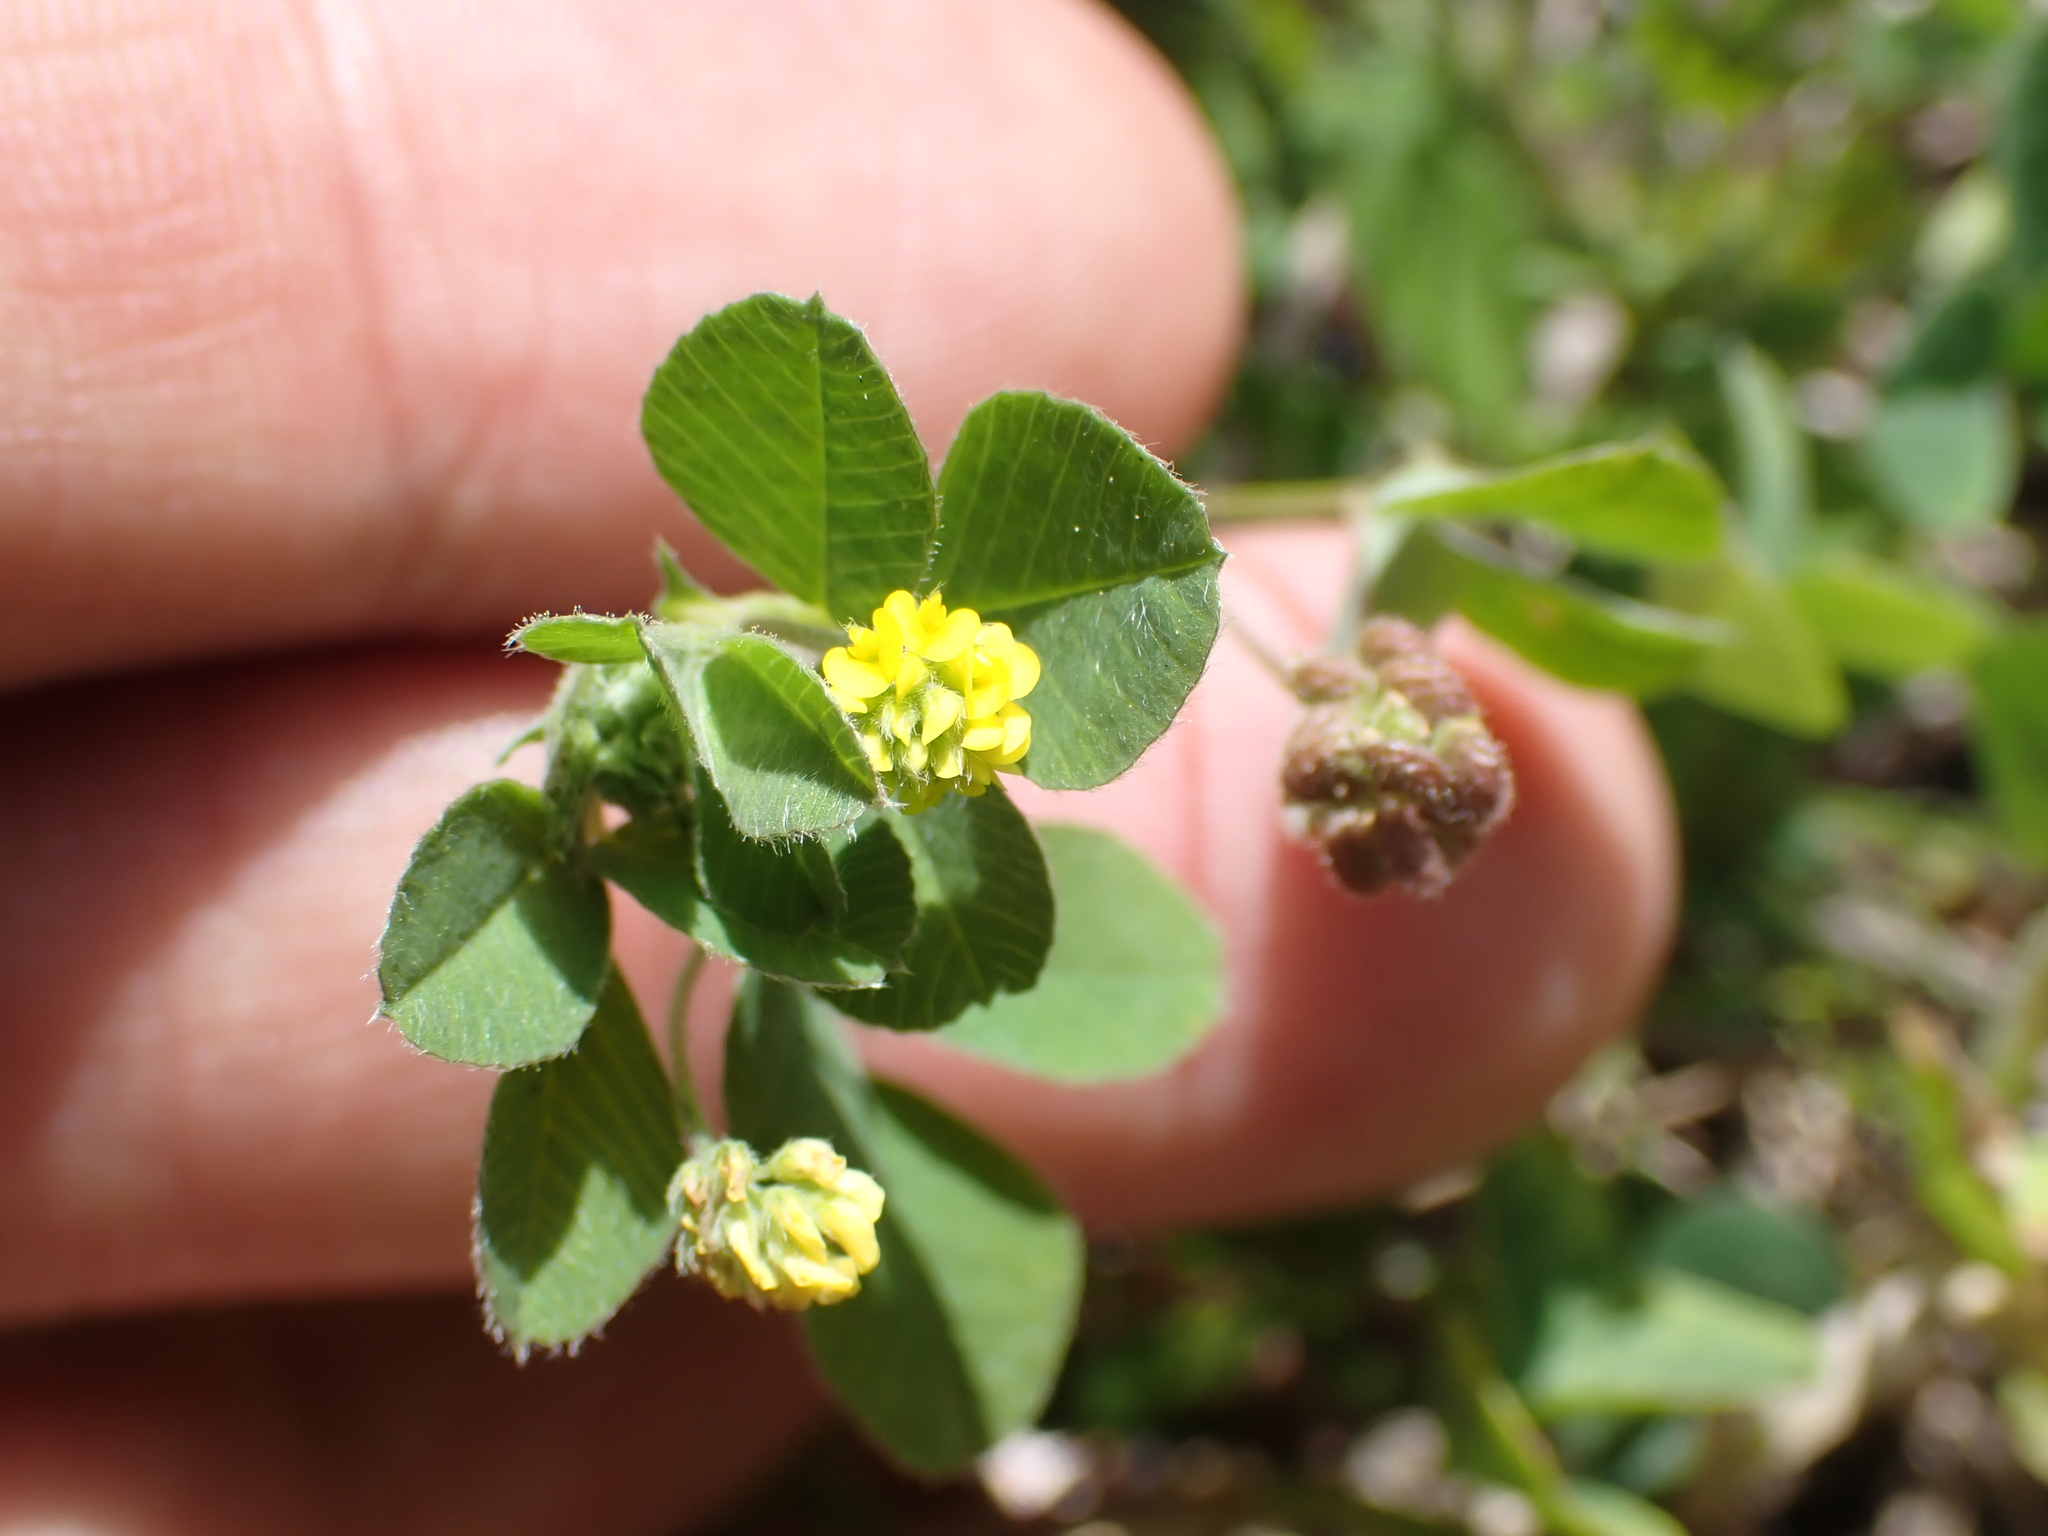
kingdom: Plantae
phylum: Tracheophyta
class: Magnoliopsida
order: Fabales
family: Fabaceae
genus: Medicago
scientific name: Medicago lupulina
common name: Black medick
